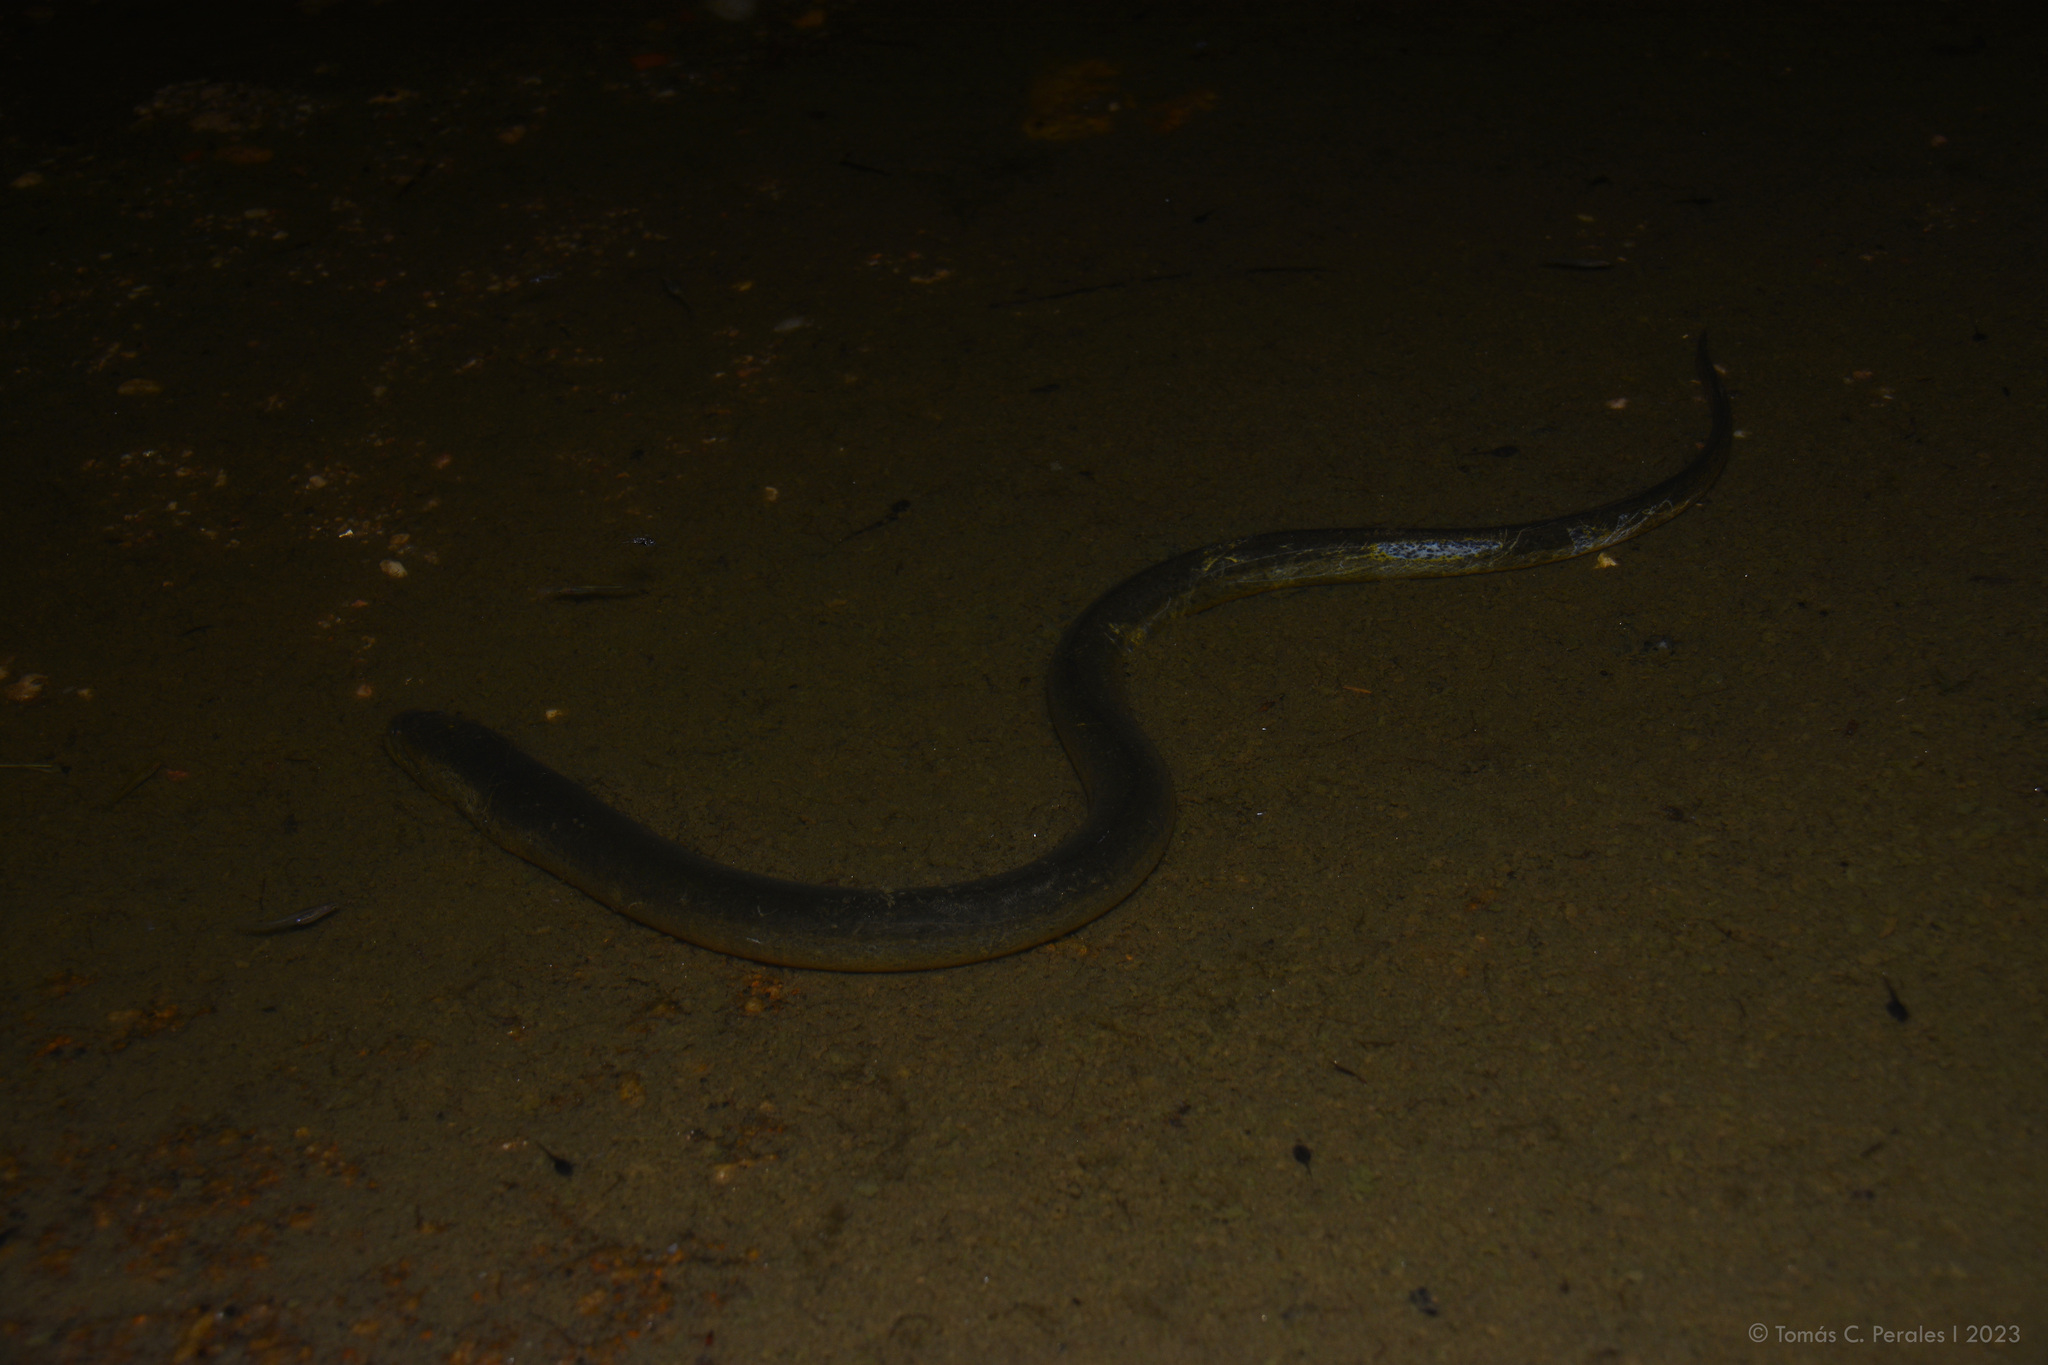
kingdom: Animalia
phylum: Chordata
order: Synbranchiformes
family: Synbranchidae
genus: Synbranchus
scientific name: Synbranchus marmoratus
